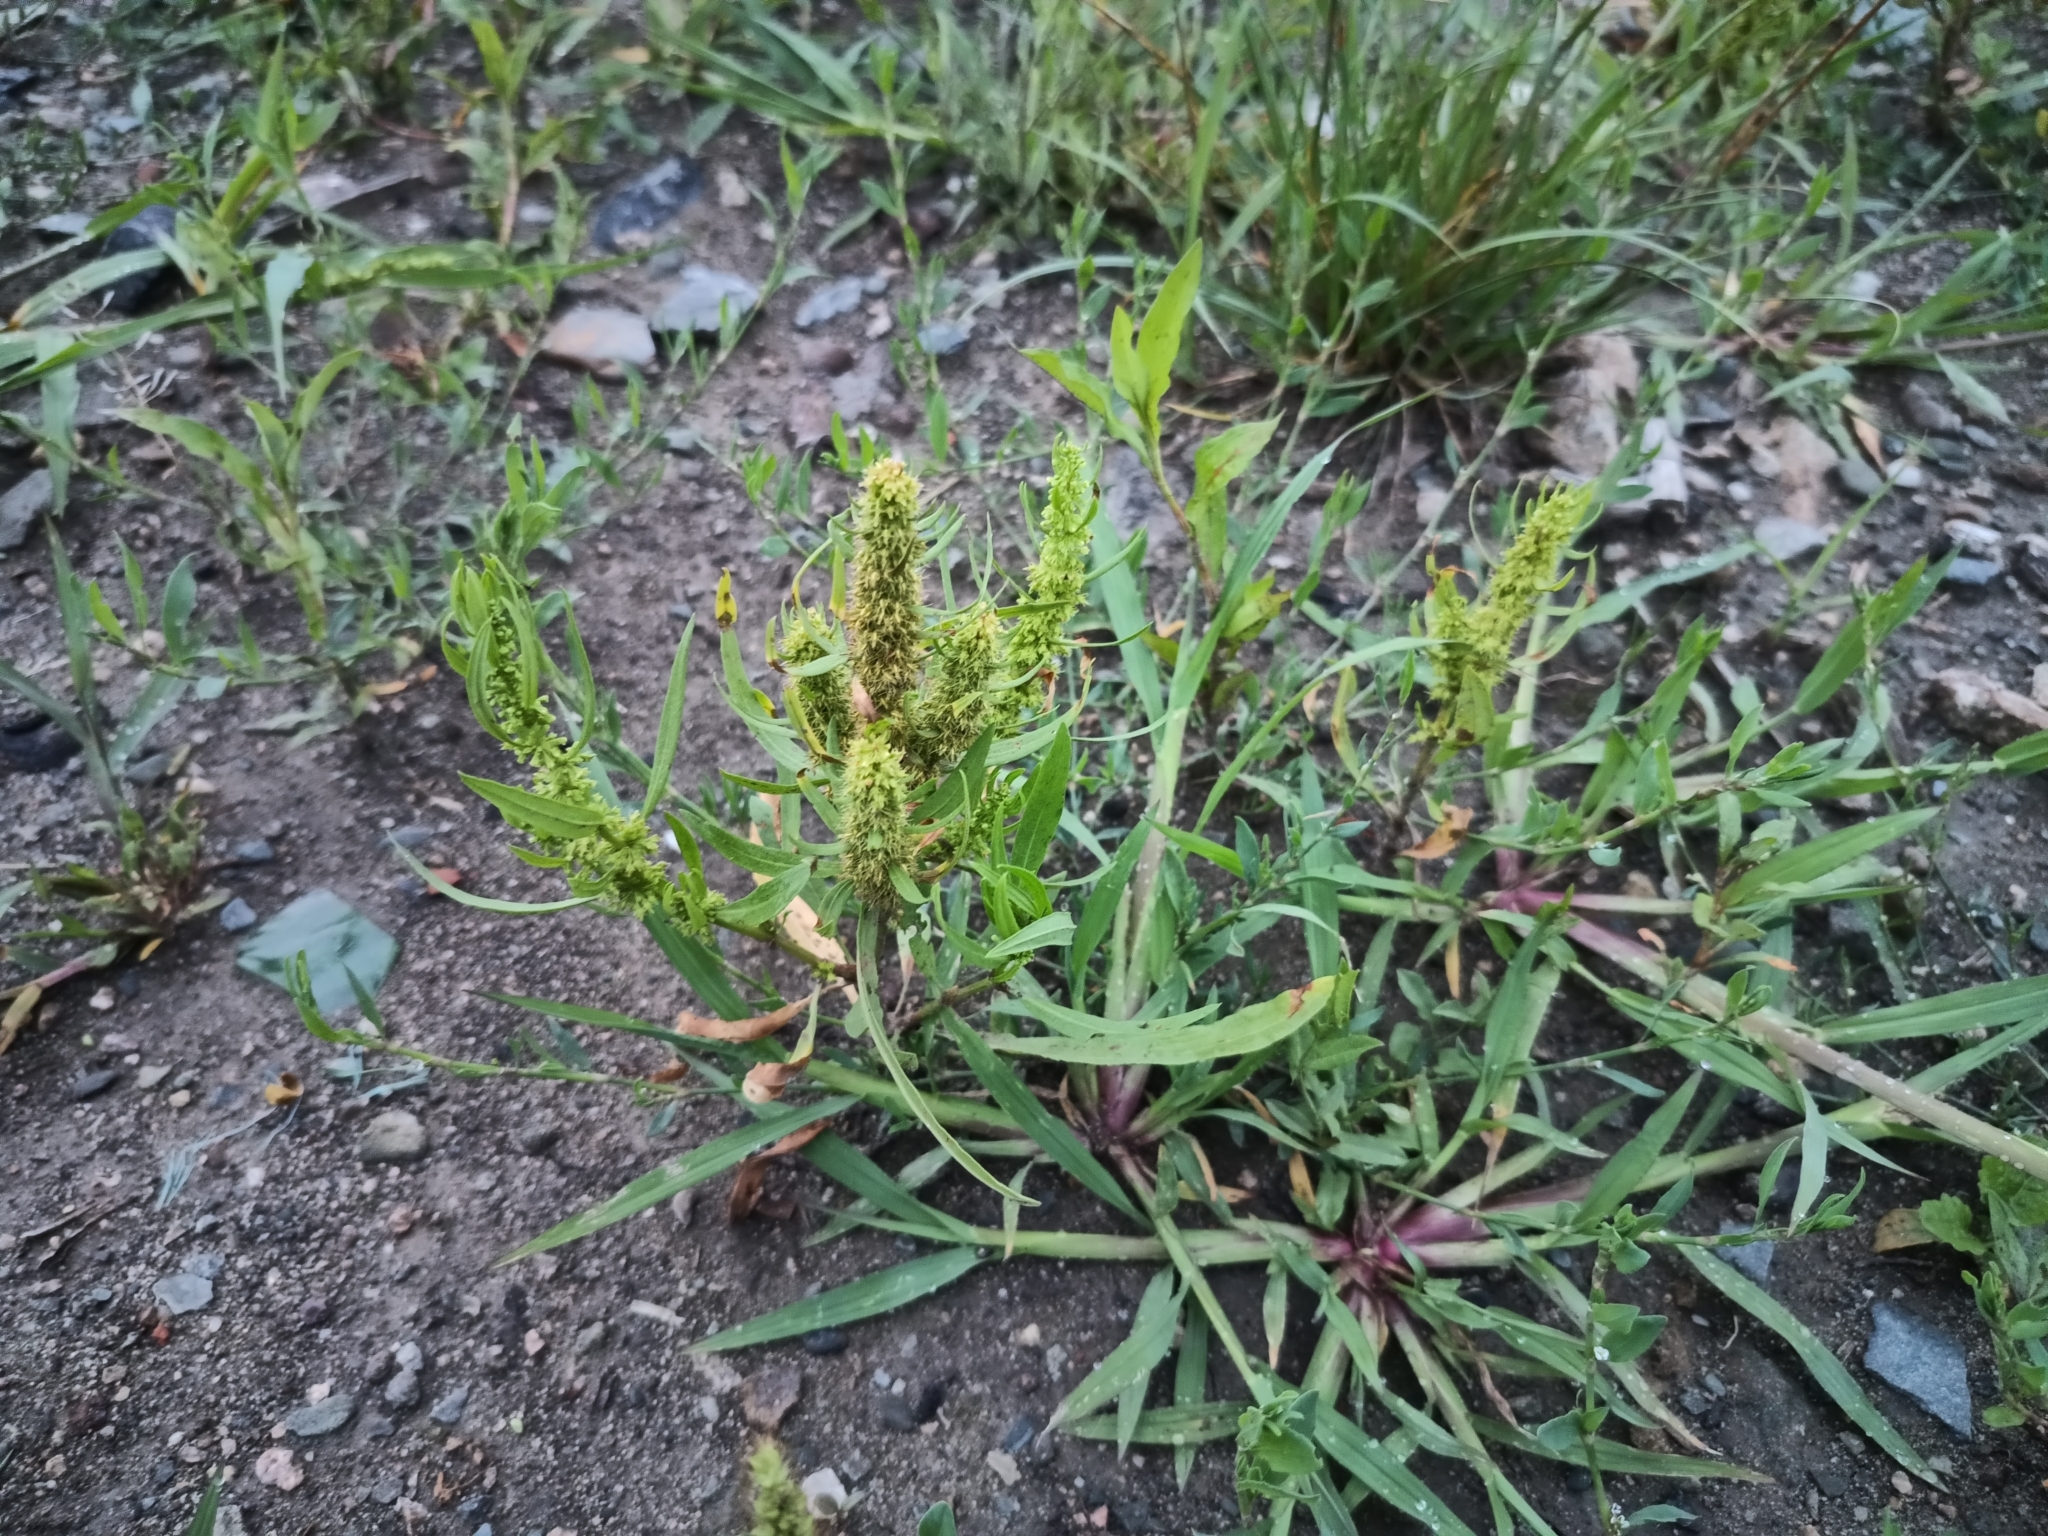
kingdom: Plantae
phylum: Tracheophyta
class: Magnoliopsida
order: Caryophyllales
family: Polygonaceae
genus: Rumex
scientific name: Rumex maritimus
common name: Golden dock
